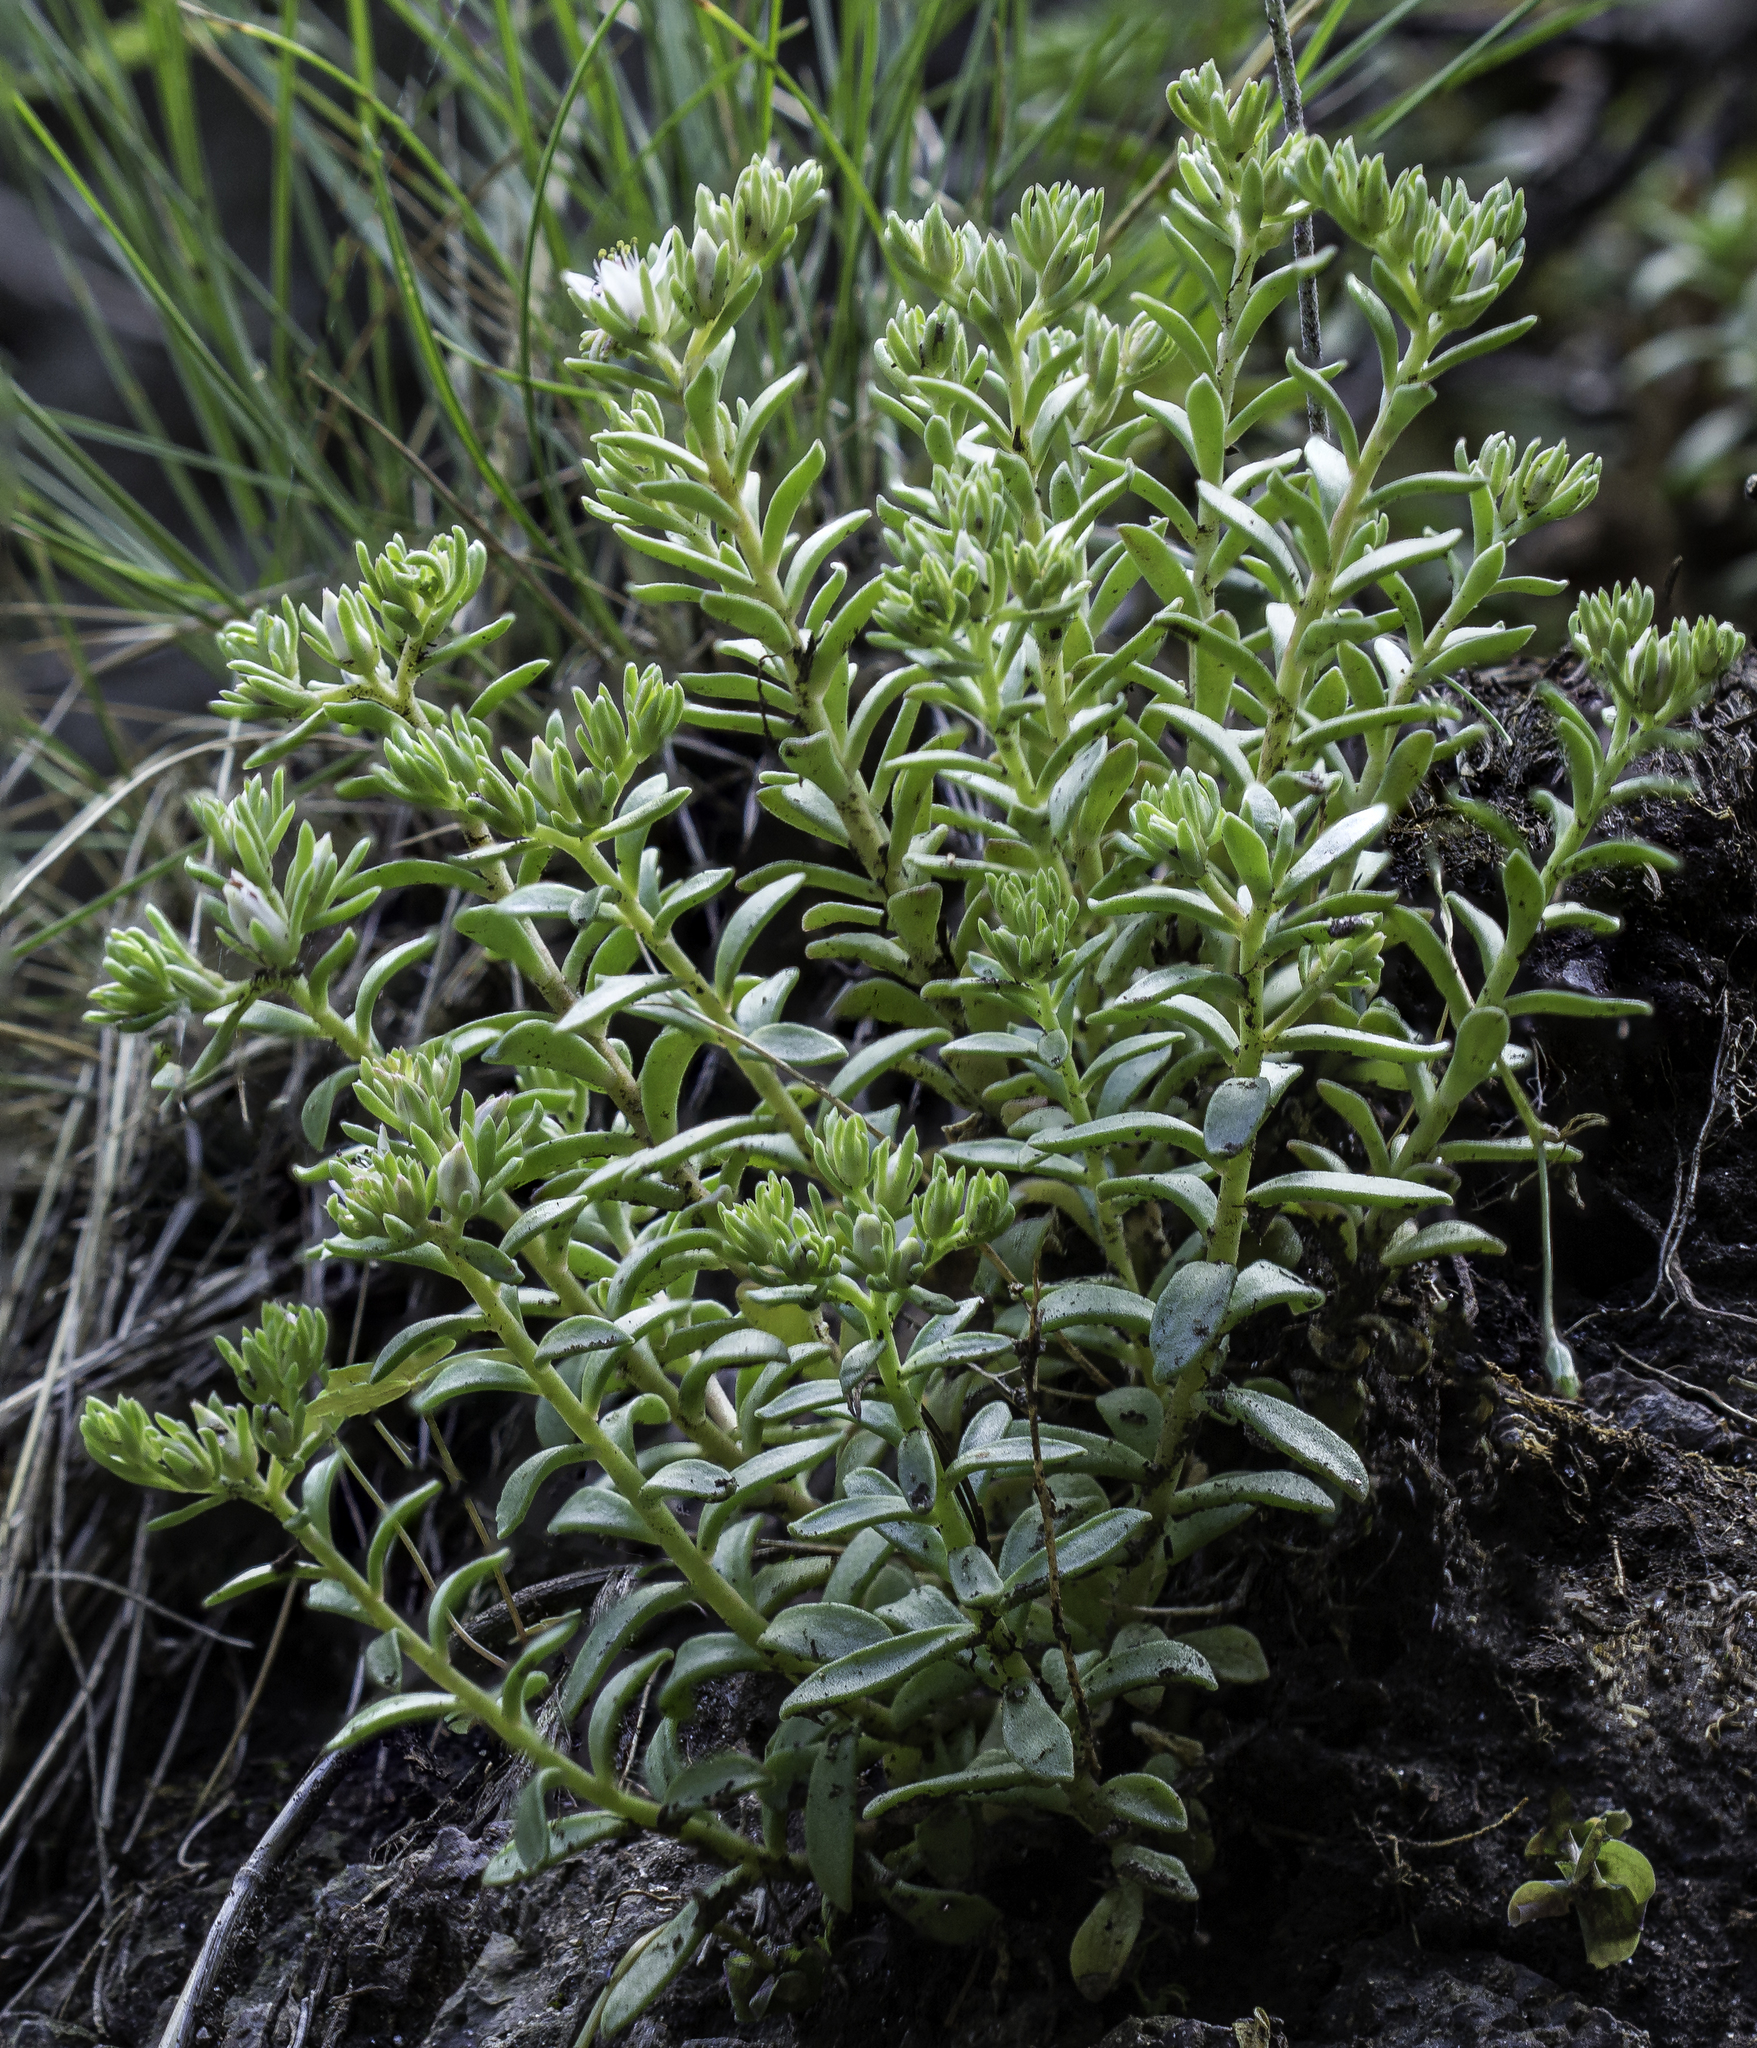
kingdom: Plantae
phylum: Tracheophyta
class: Magnoliopsida
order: Saxifragales
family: Crassulaceae
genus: Sedum
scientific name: Sedum cockerellii
